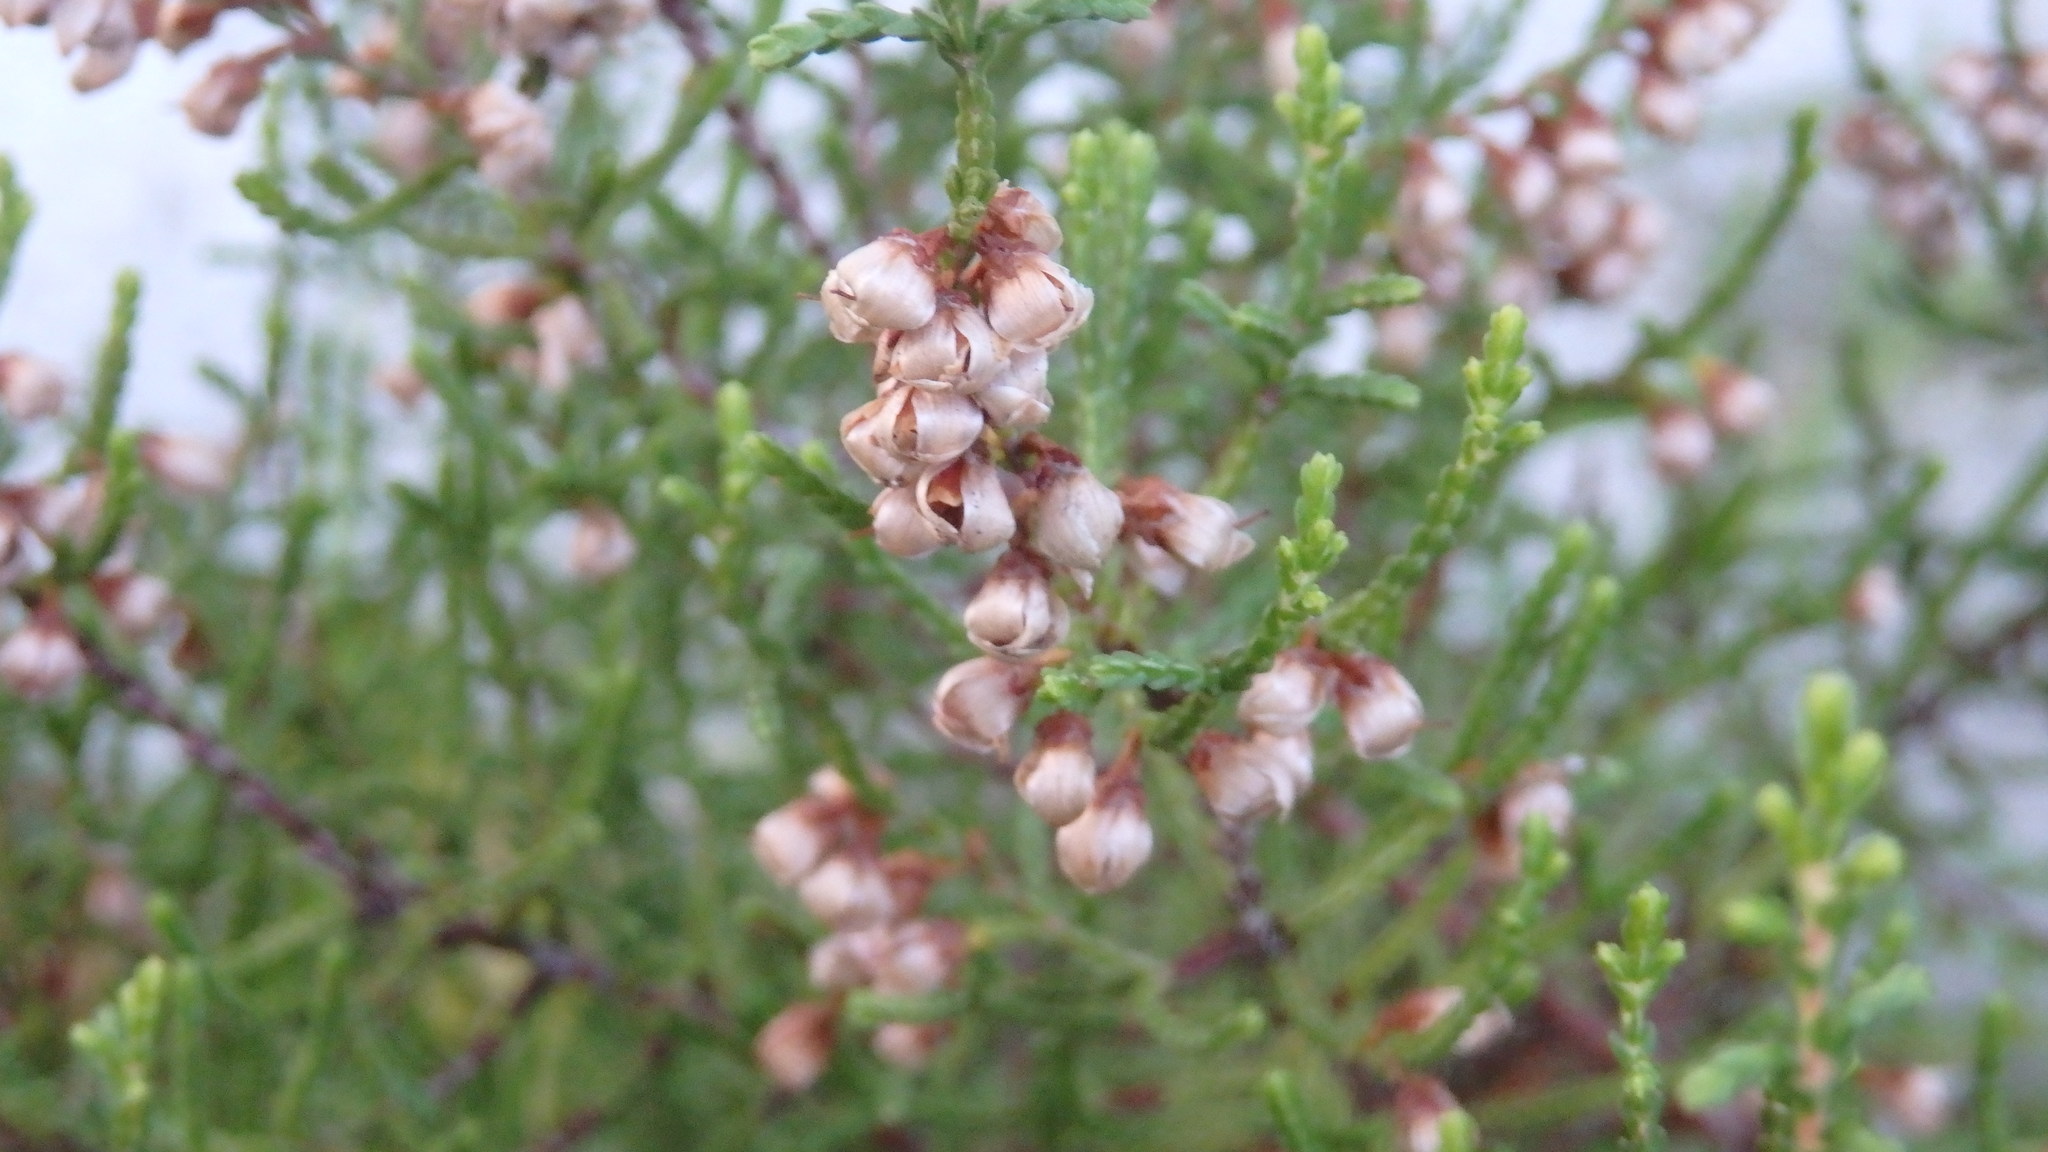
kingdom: Plantae
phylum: Tracheophyta
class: Magnoliopsida
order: Ericales
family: Ericaceae
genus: Calluna
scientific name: Calluna vulgaris
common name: Heather
